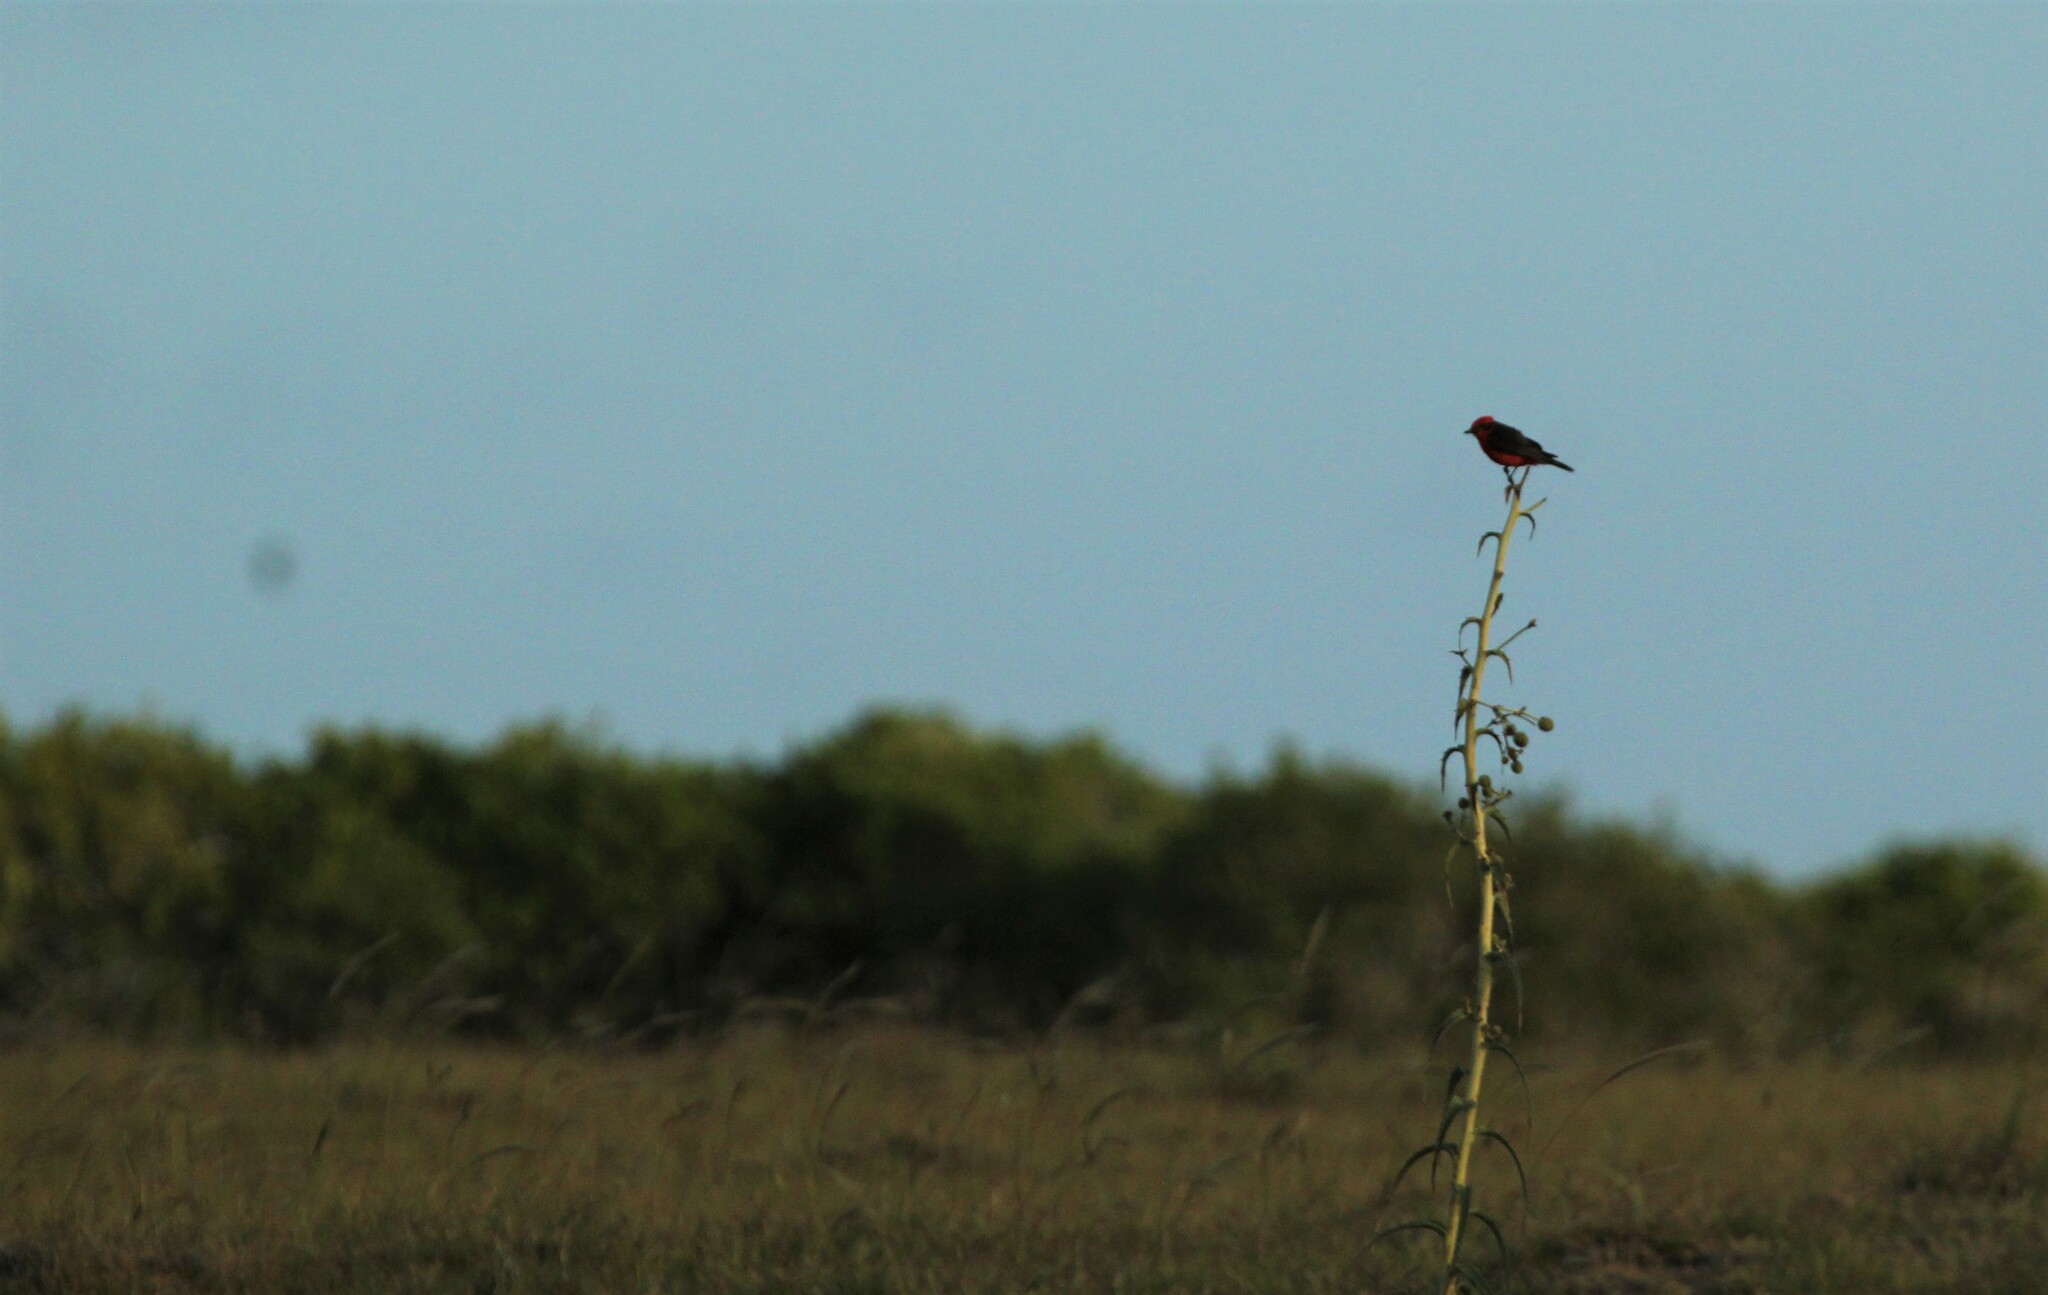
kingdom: Animalia
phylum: Chordata
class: Aves
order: Passeriformes
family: Tyrannidae
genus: Pyrocephalus
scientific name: Pyrocephalus rubinus
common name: Vermilion flycatcher
